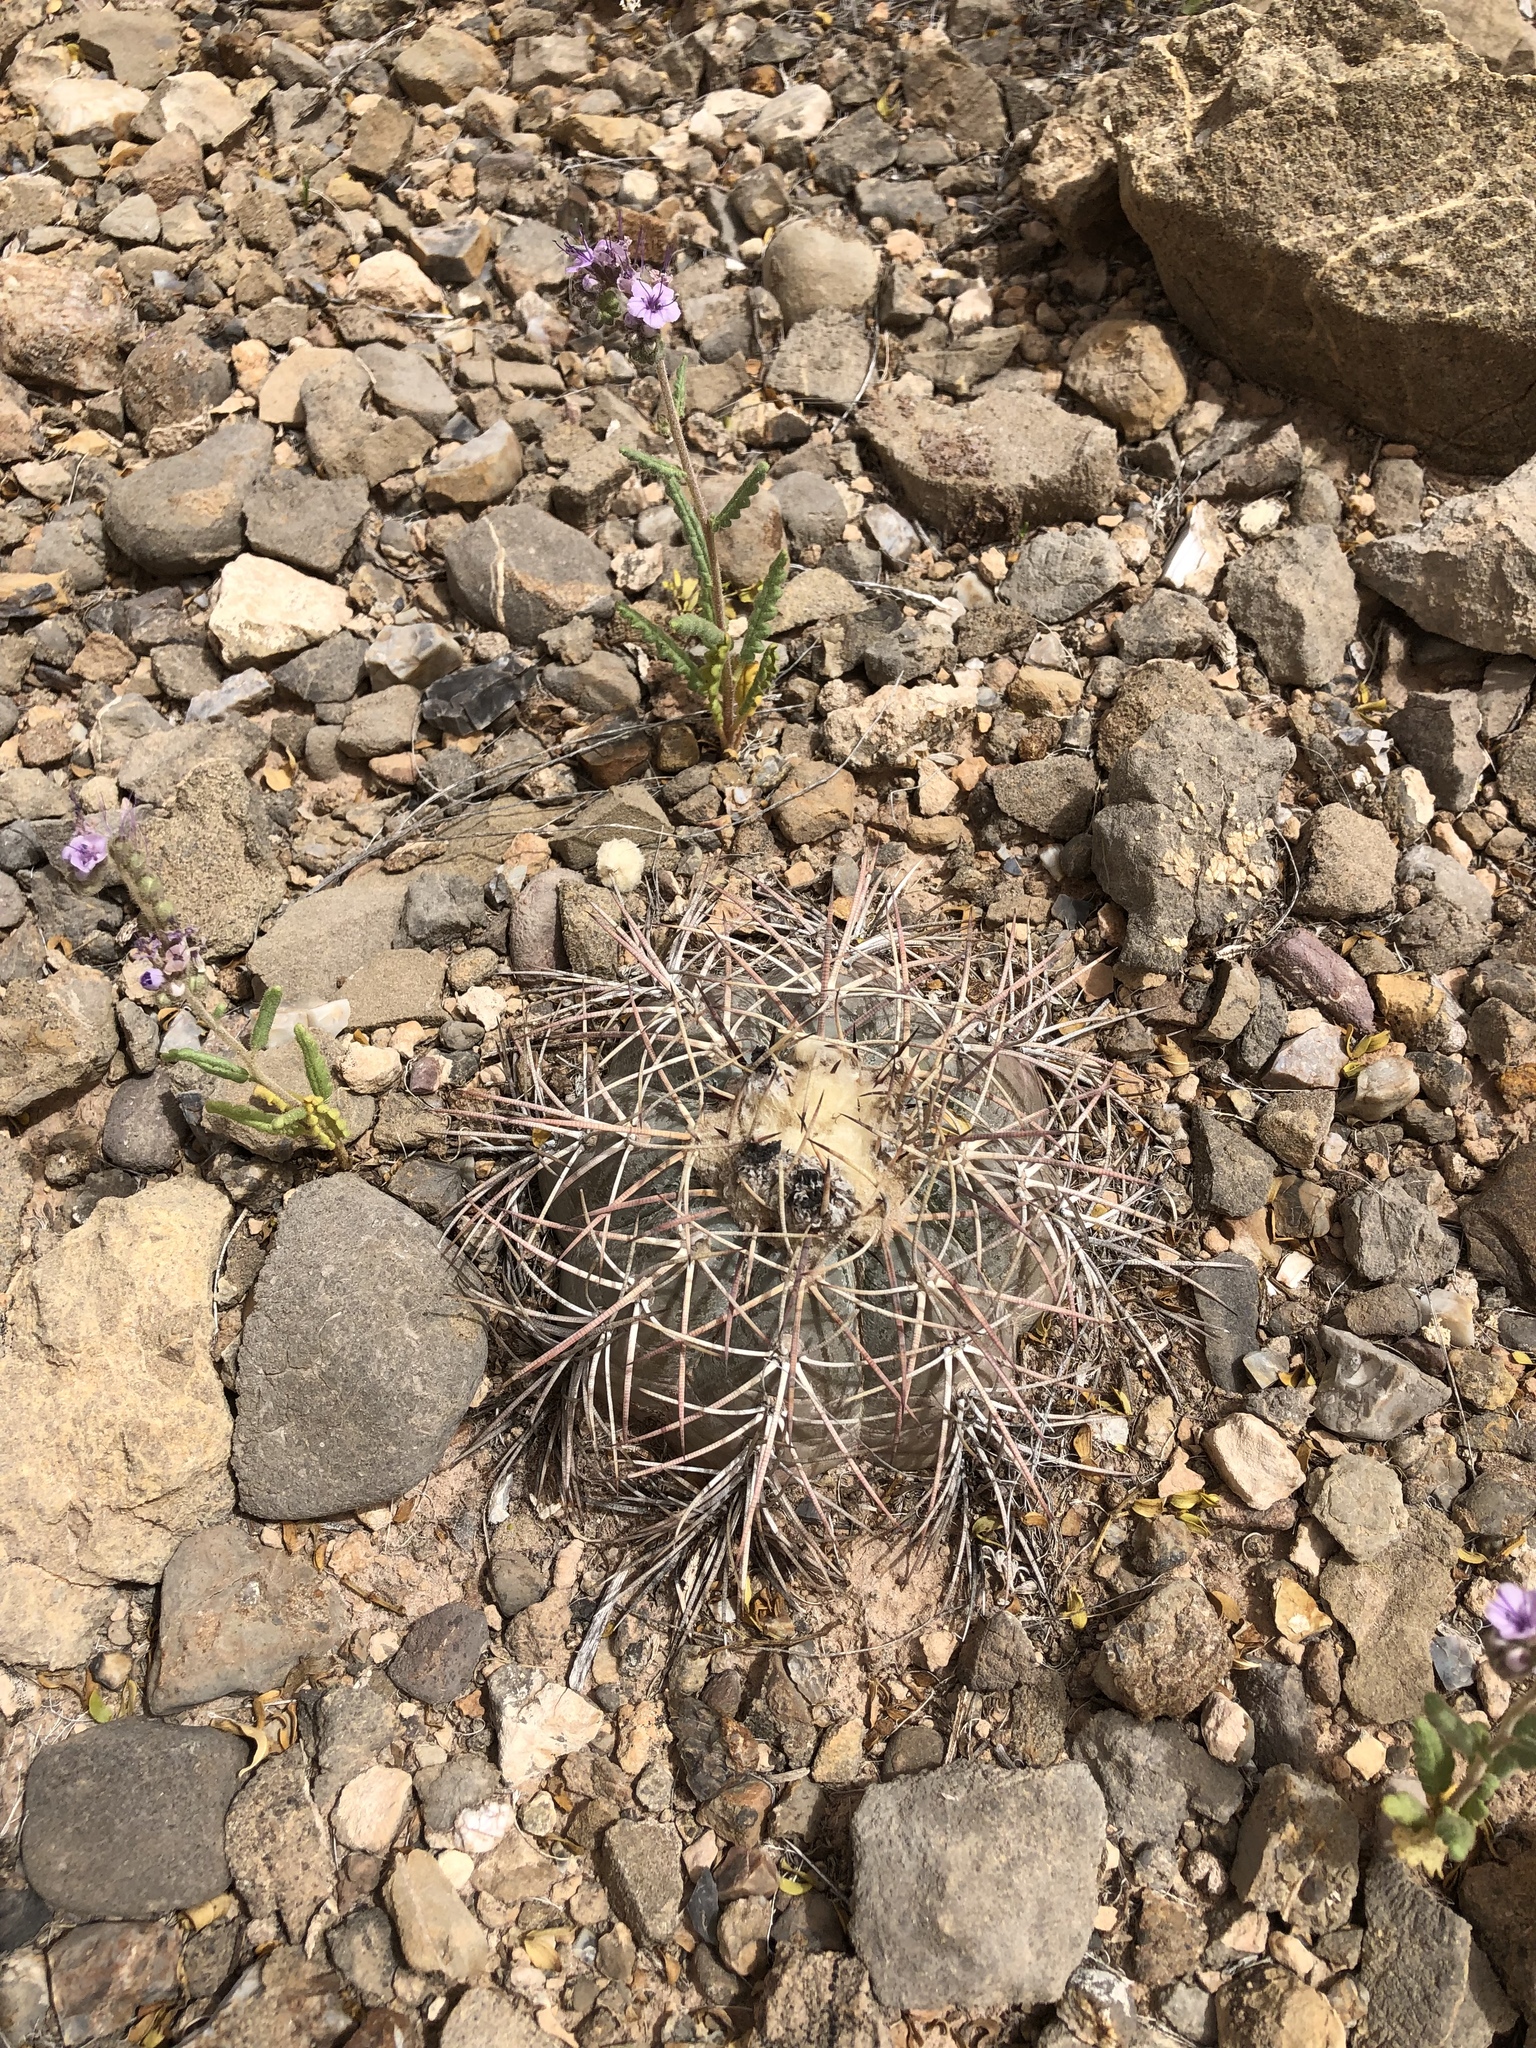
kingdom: Plantae
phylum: Tracheophyta
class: Magnoliopsida
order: Caryophyllales
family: Cactaceae
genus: Echinocactus
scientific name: Echinocactus horizonthalonius
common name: Devilshead
